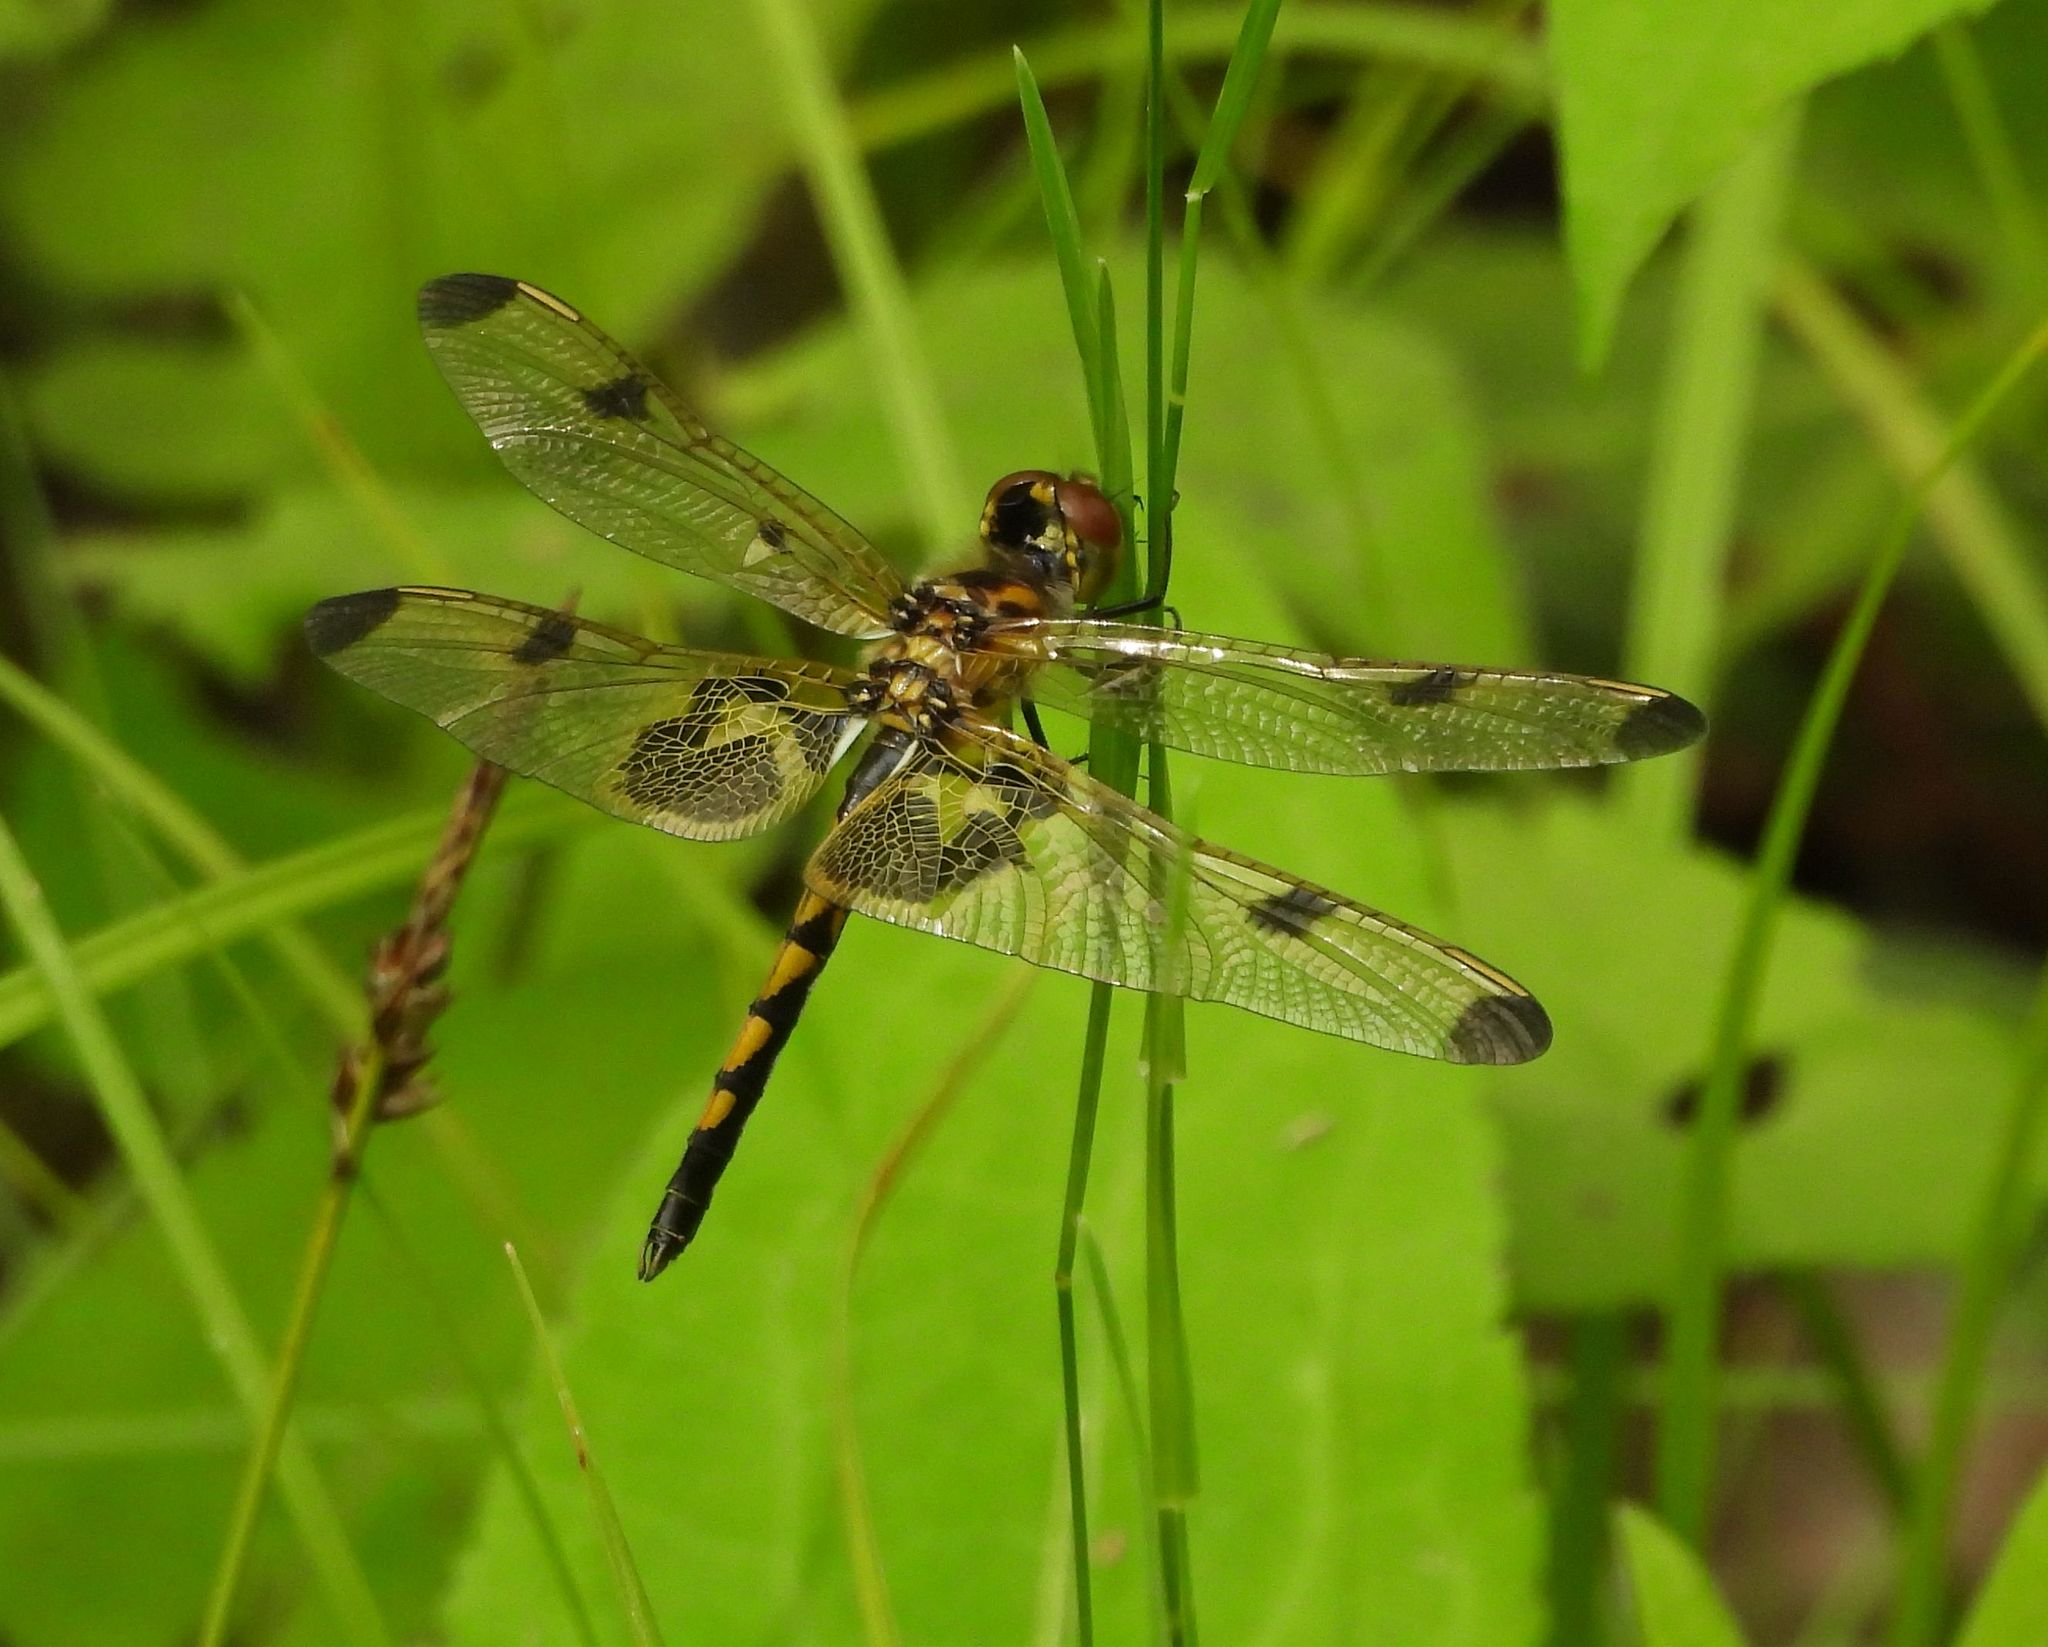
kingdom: Animalia
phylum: Arthropoda
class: Insecta
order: Odonata
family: Libellulidae
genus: Celithemis
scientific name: Celithemis elisa
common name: Calico pennant
